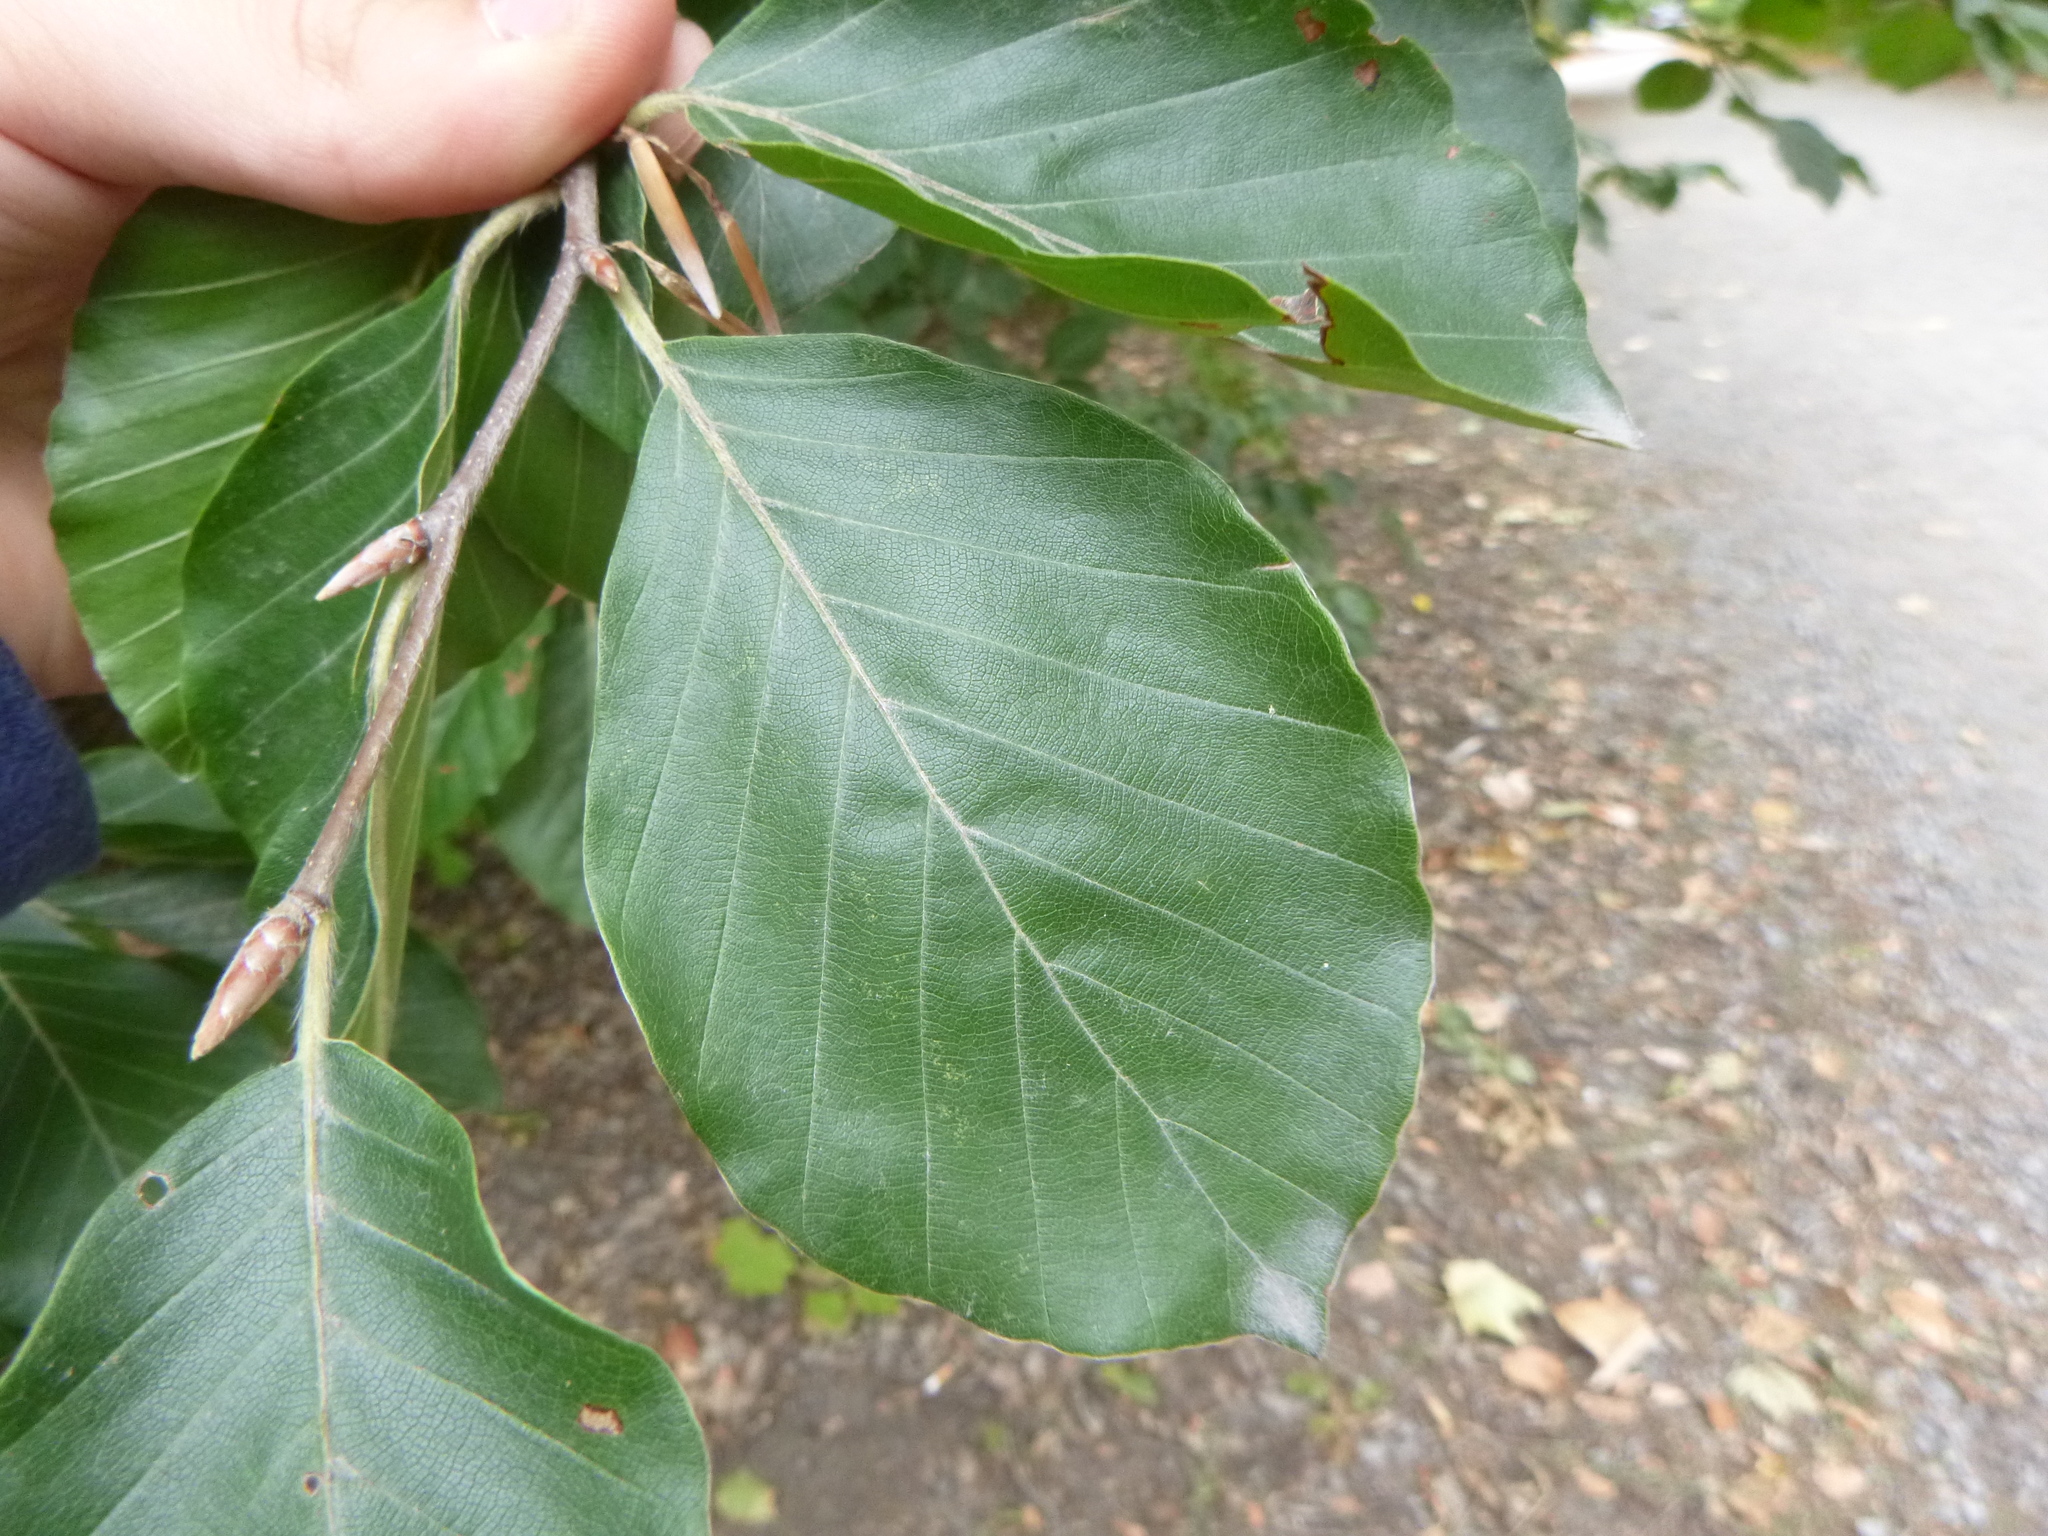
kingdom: Plantae
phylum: Tracheophyta
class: Magnoliopsida
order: Fagales
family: Fagaceae
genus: Fagus
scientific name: Fagus sylvatica
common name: Beech
